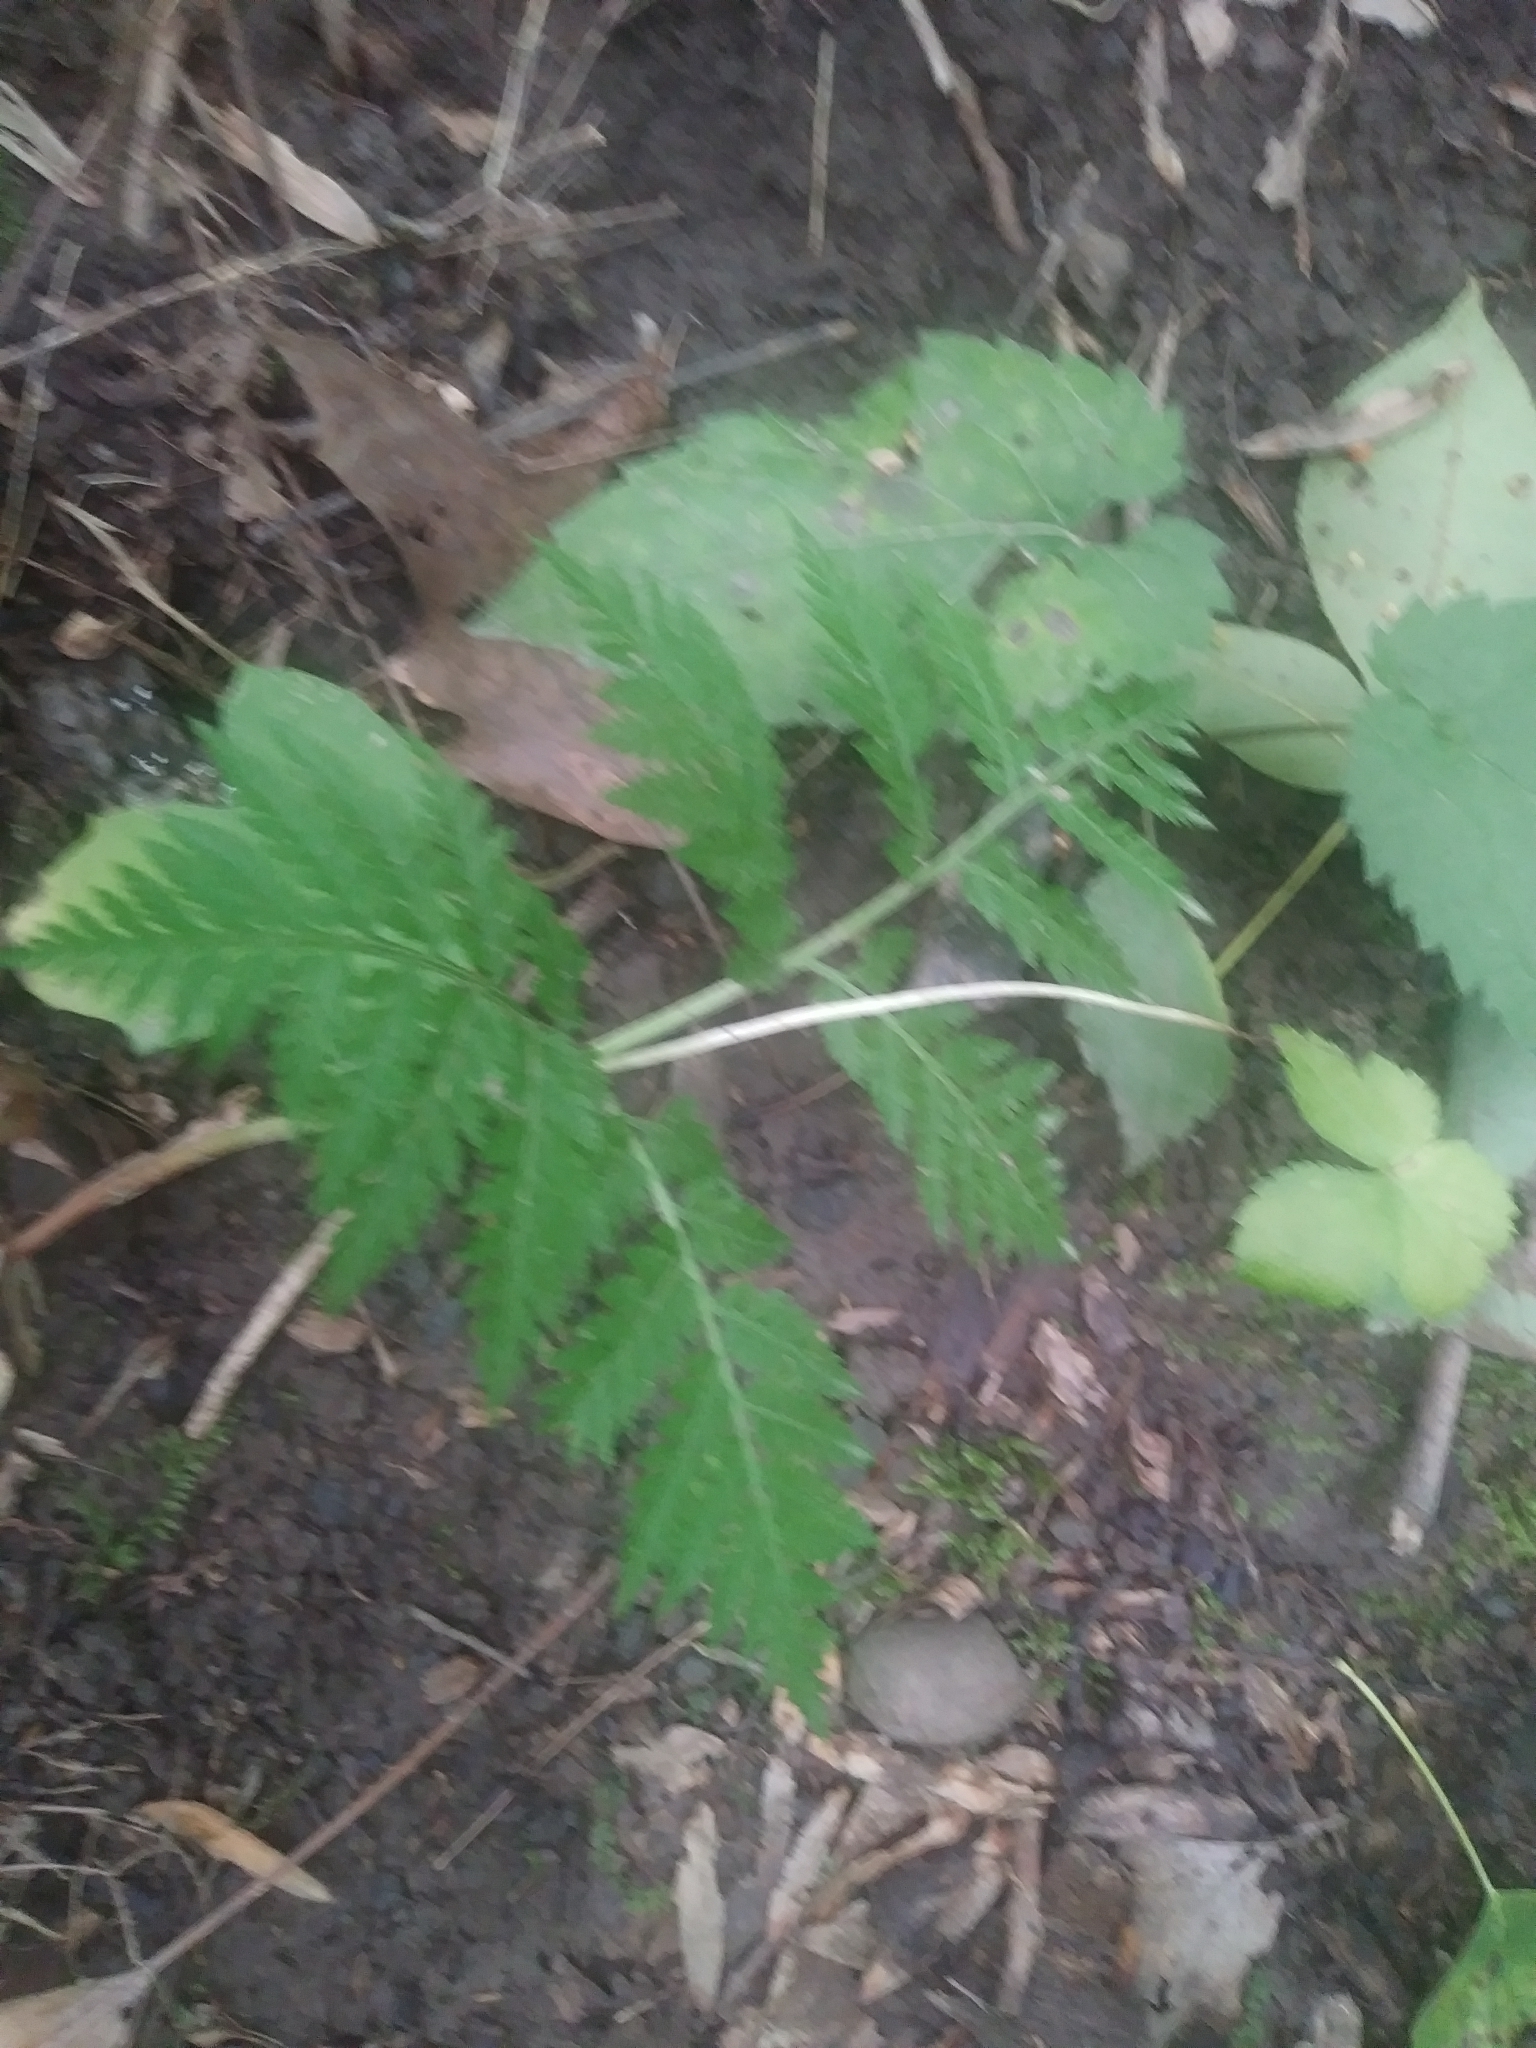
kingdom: Plantae
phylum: Tracheophyta
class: Polypodiopsida
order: Ophioglossales
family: Ophioglossaceae
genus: Botrypus
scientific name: Botrypus virginianus
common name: Common grapefern
